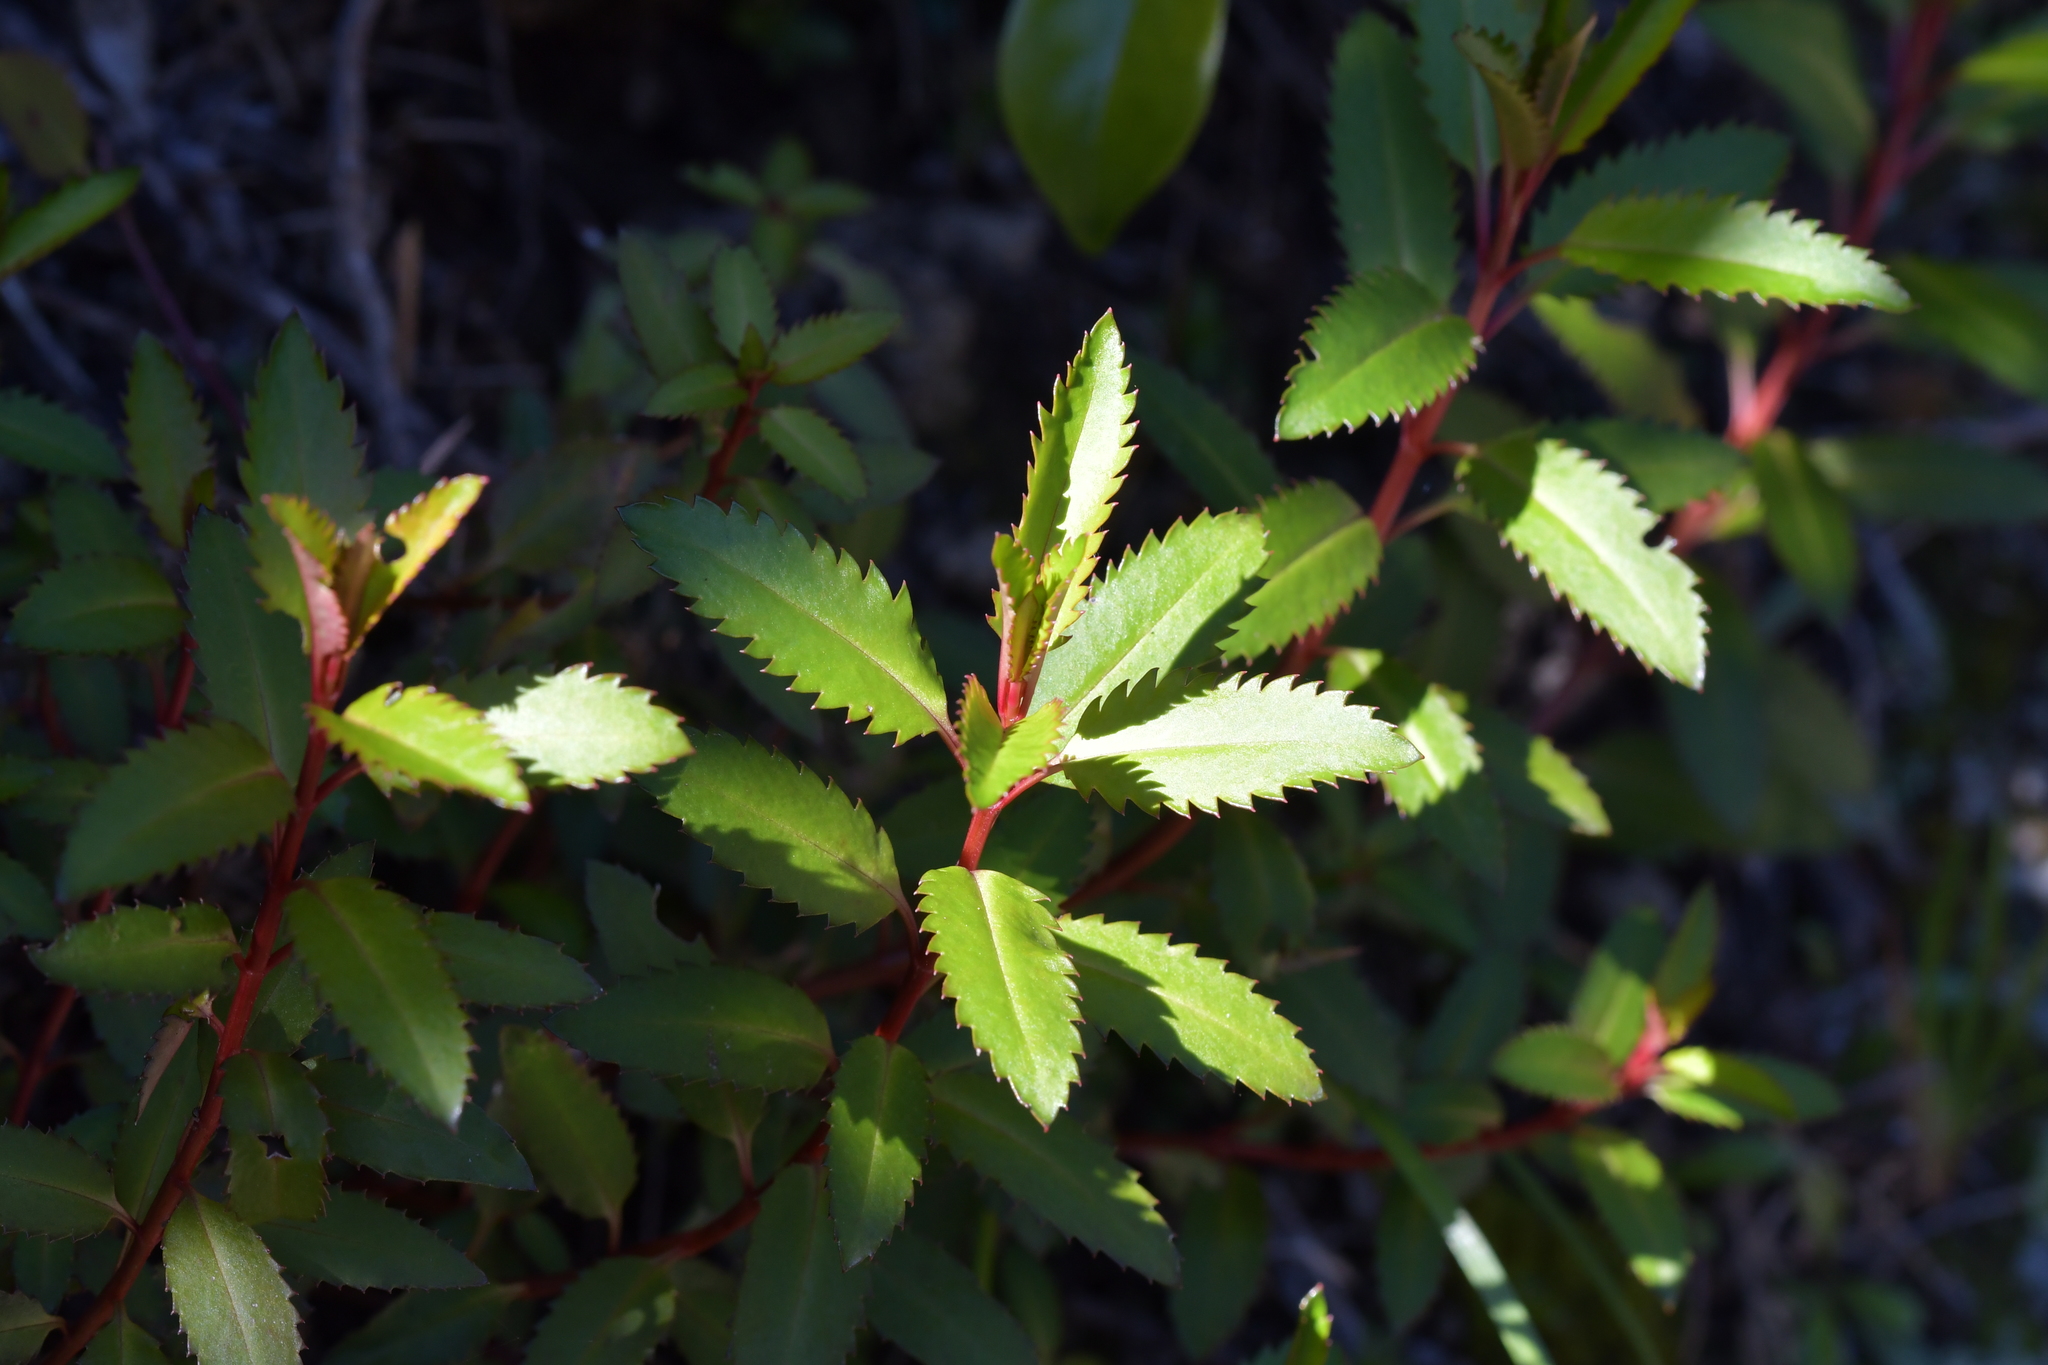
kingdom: Plantae
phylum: Tracheophyta
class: Magnoliopsida
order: Saxifragales
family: Haloragaceae
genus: Haloragis
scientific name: Haloragis erecta
